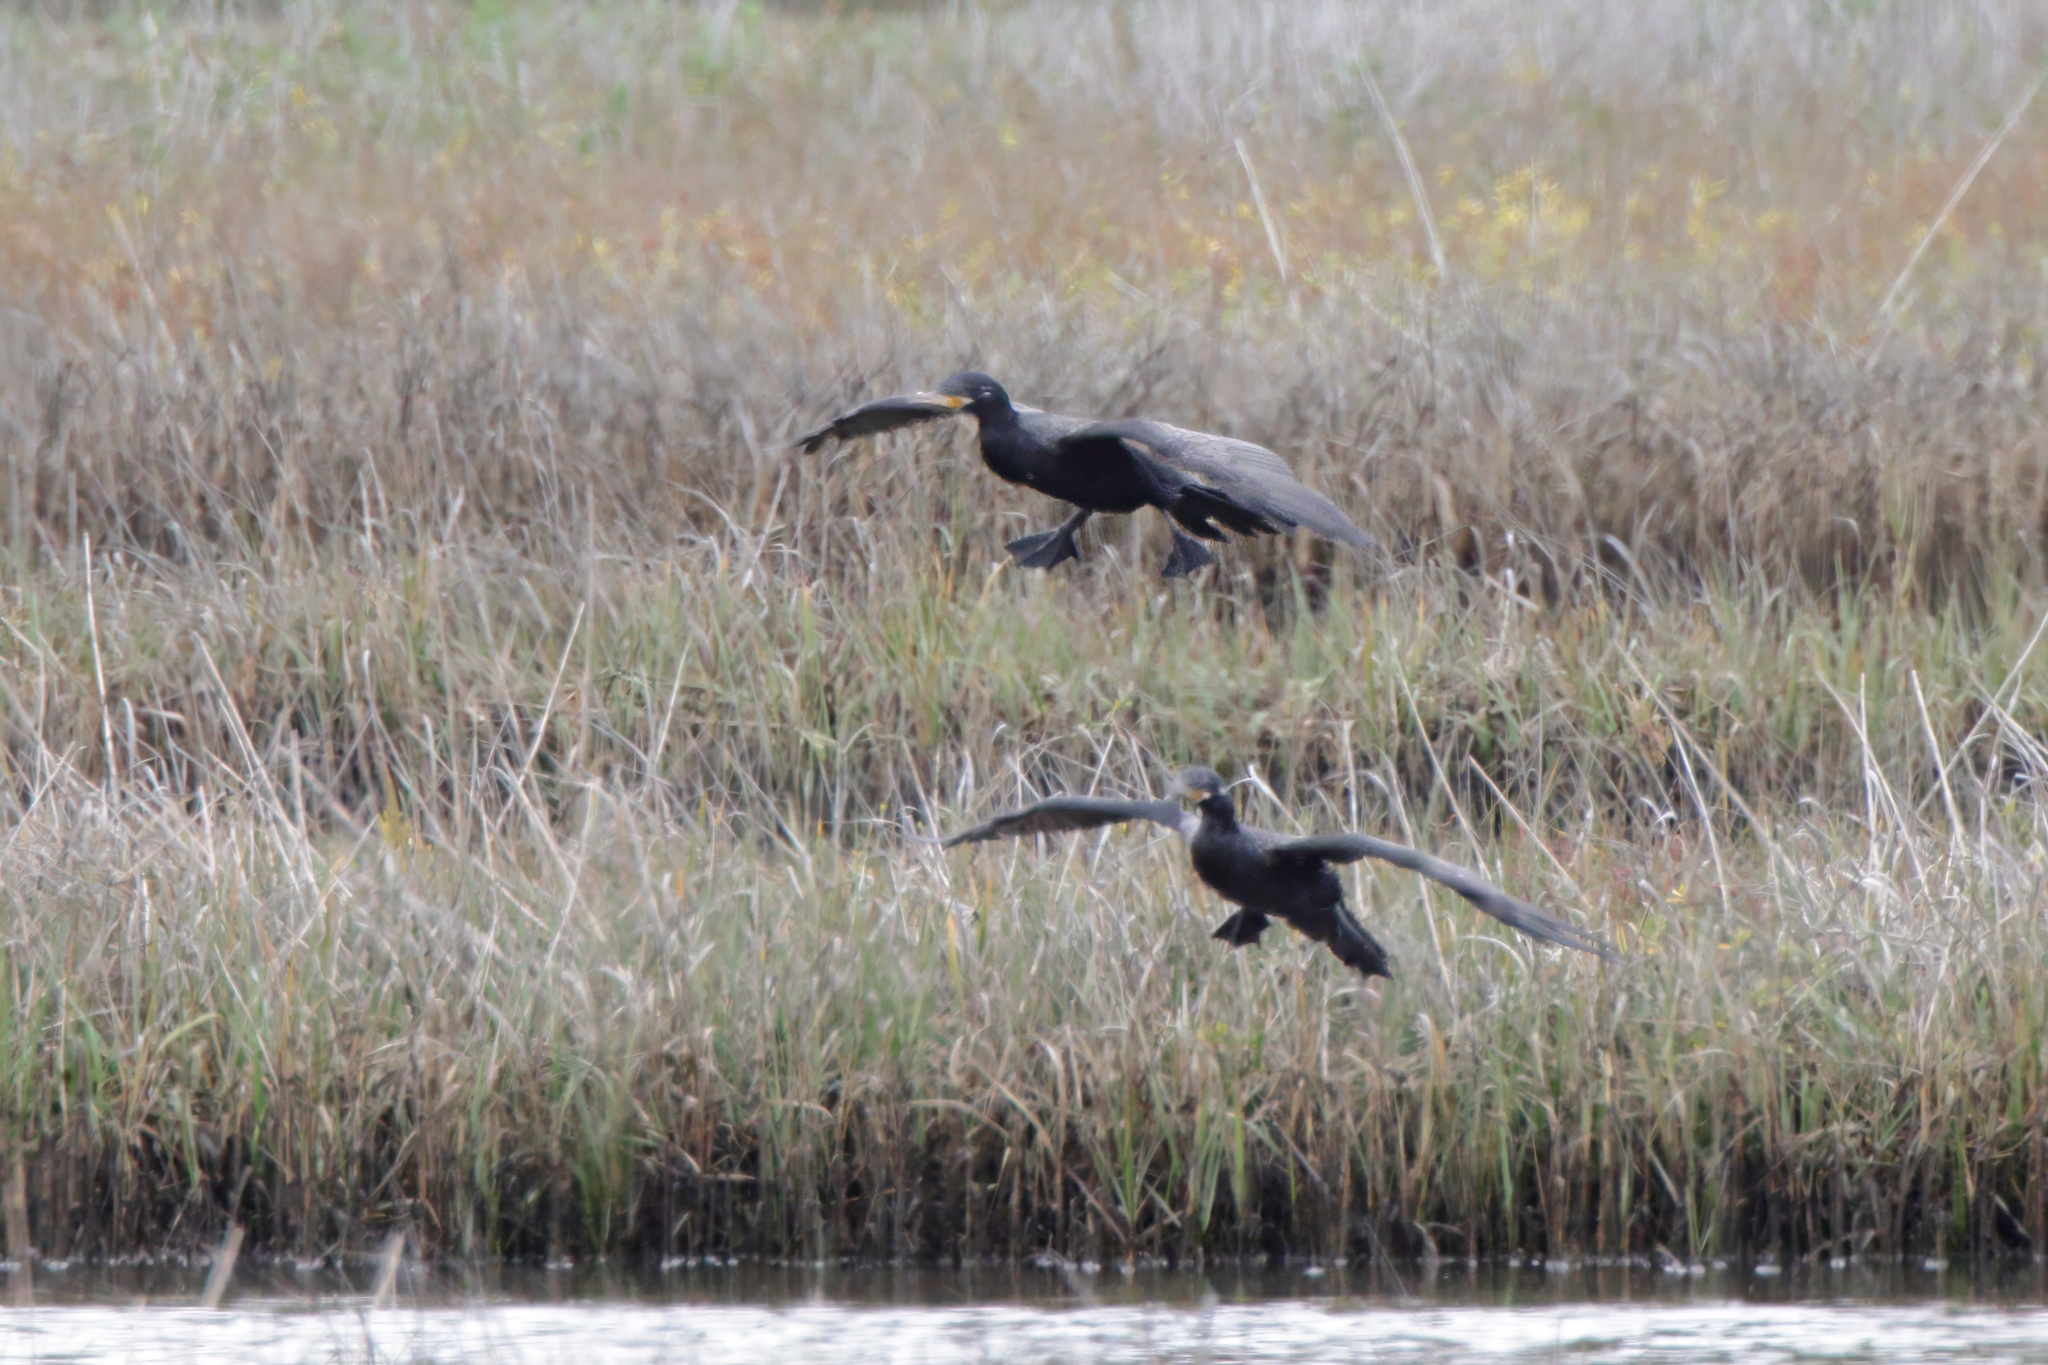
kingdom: Animalia
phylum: Chordata
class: Aves
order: Suliformes
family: Phalacrocoracidae
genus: Phalacrocorax
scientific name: Phalacrocorax brasilianus
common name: Neotropic cormorant
